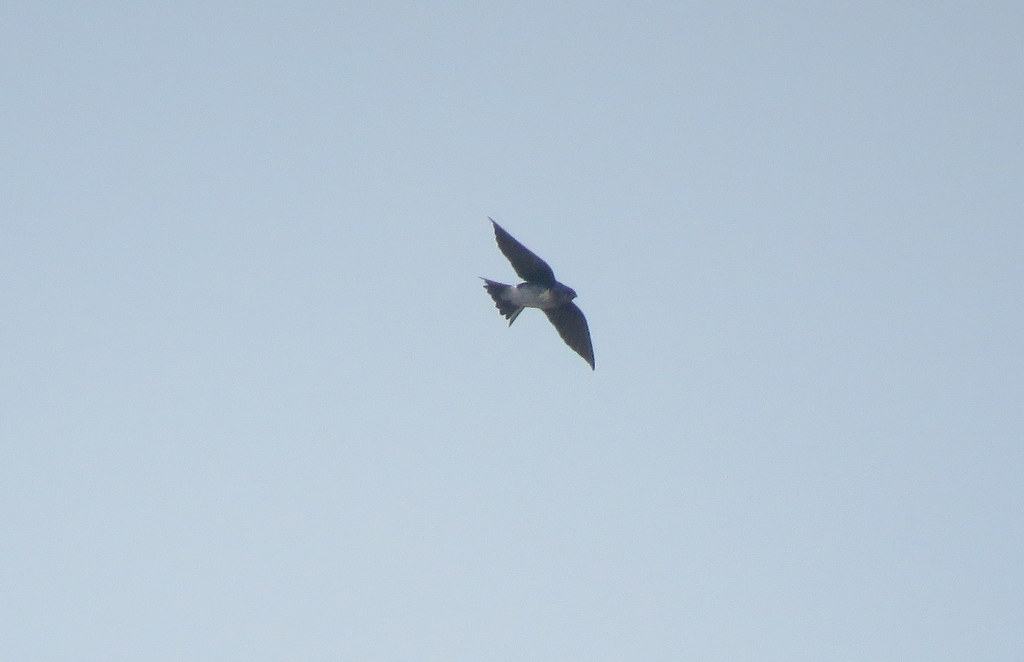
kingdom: Animalia
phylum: Chordata
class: Aves
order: Passeriformes
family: Hirundinidae
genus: Progne
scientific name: Progne chalybea
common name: Grey-breasted martin
